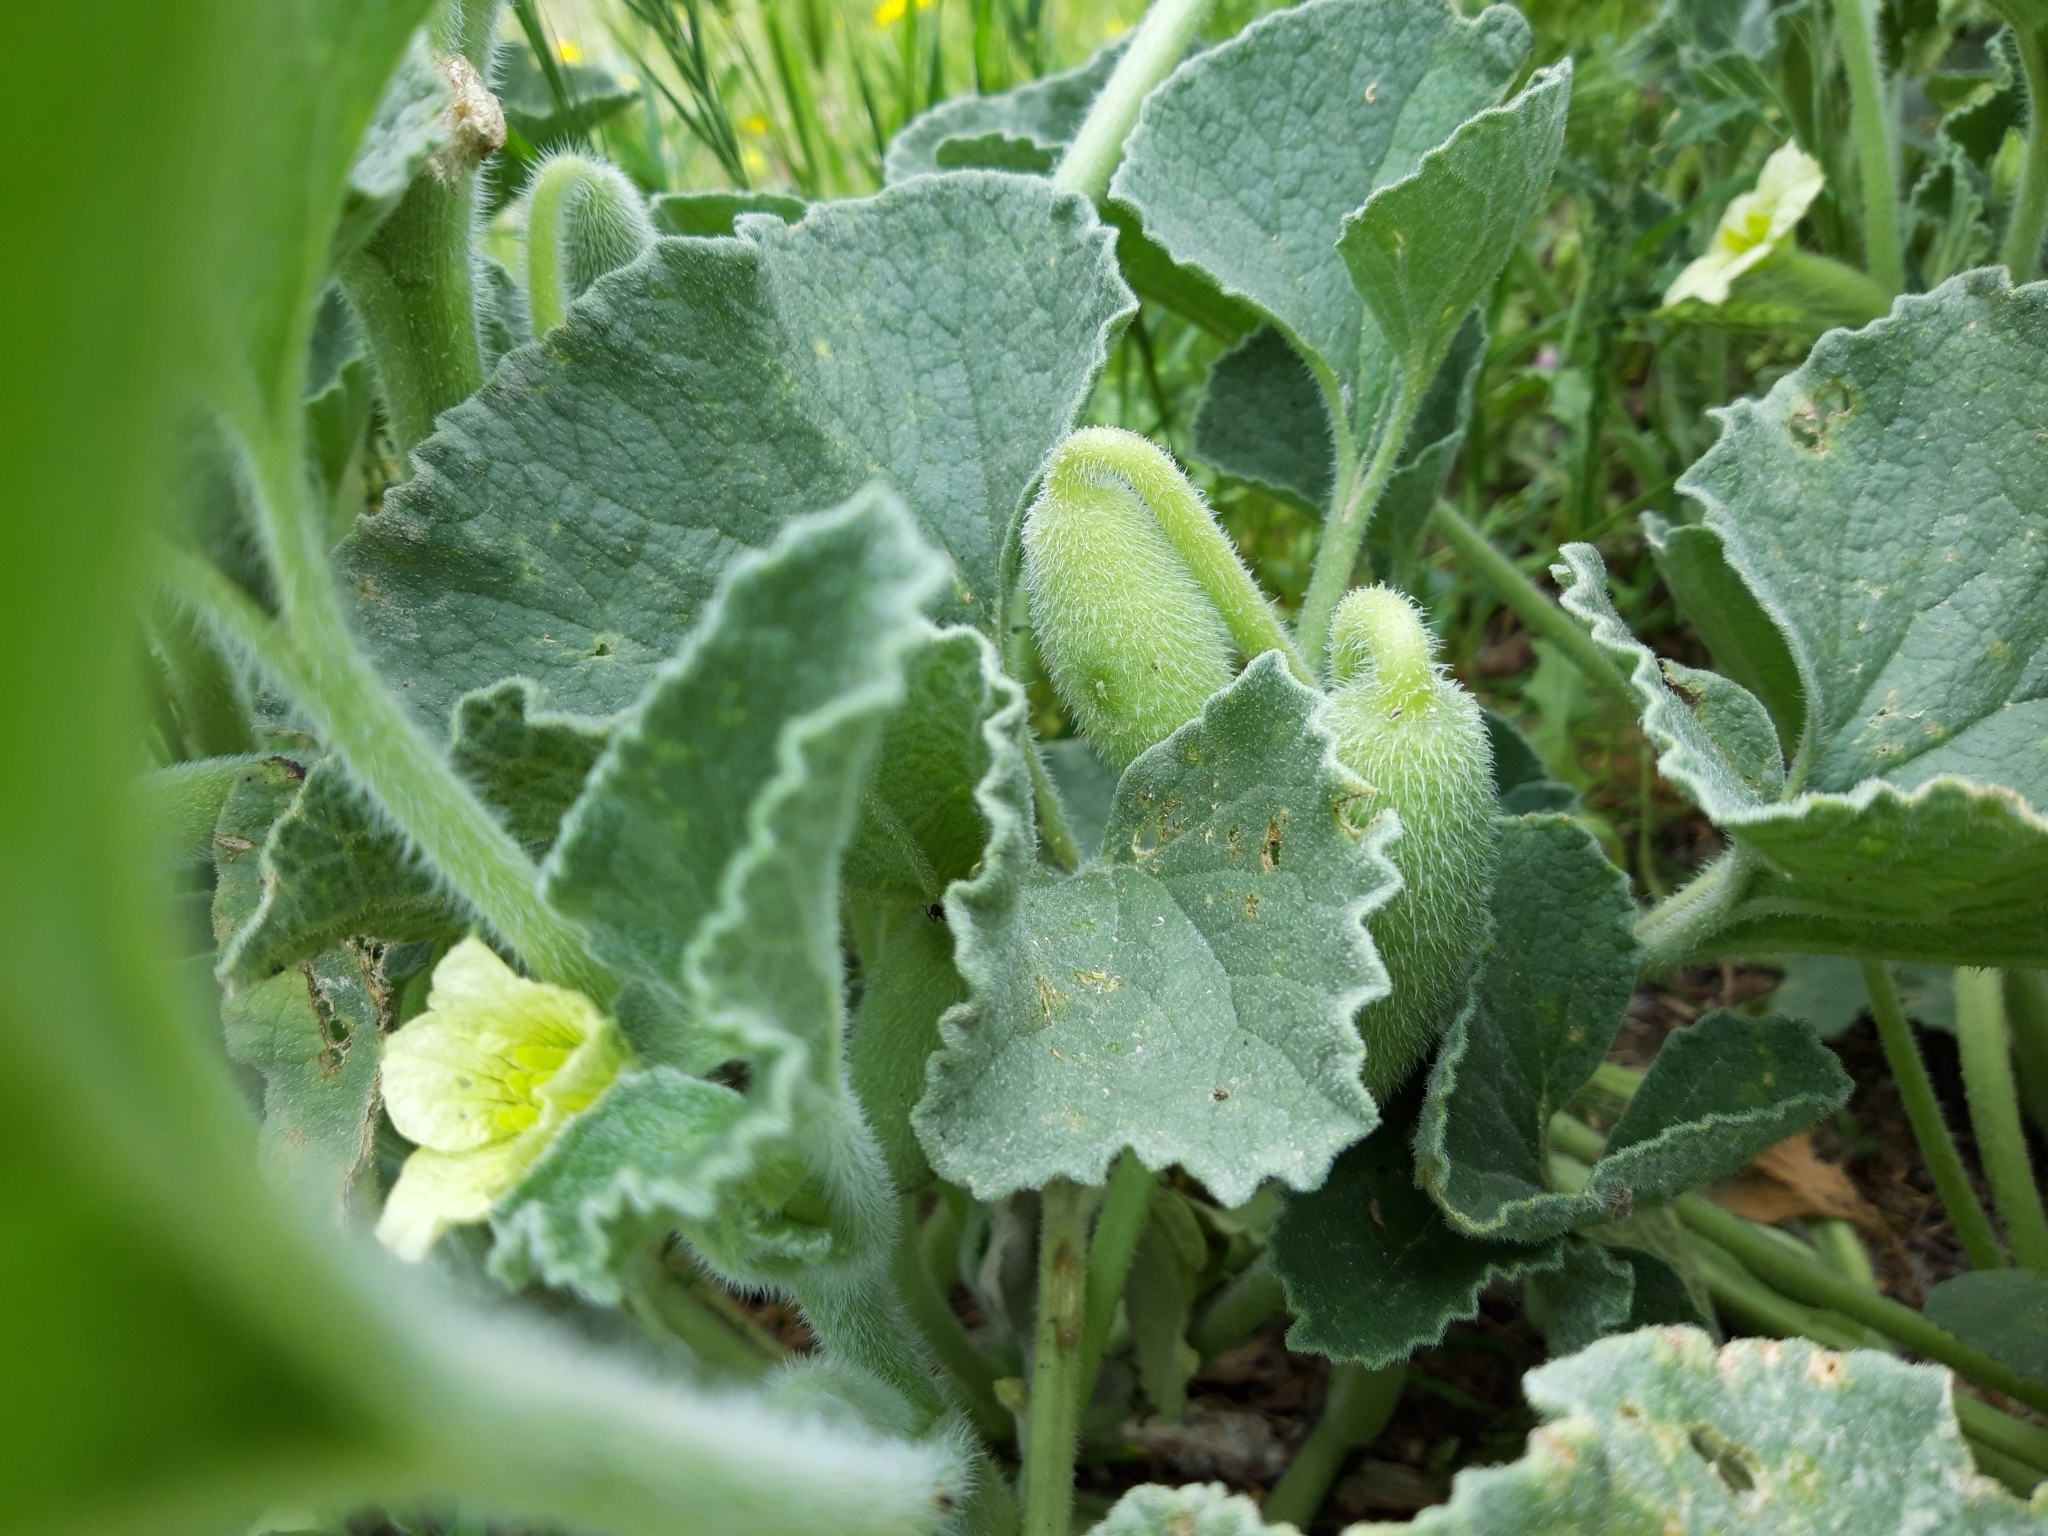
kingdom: Plantae
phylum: Tracheophyta
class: Magnoliopsida
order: Cucurbitales
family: Cucurbitaceae
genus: Ecballium
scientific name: Ecballium elaterium
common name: Squirting cucumber
